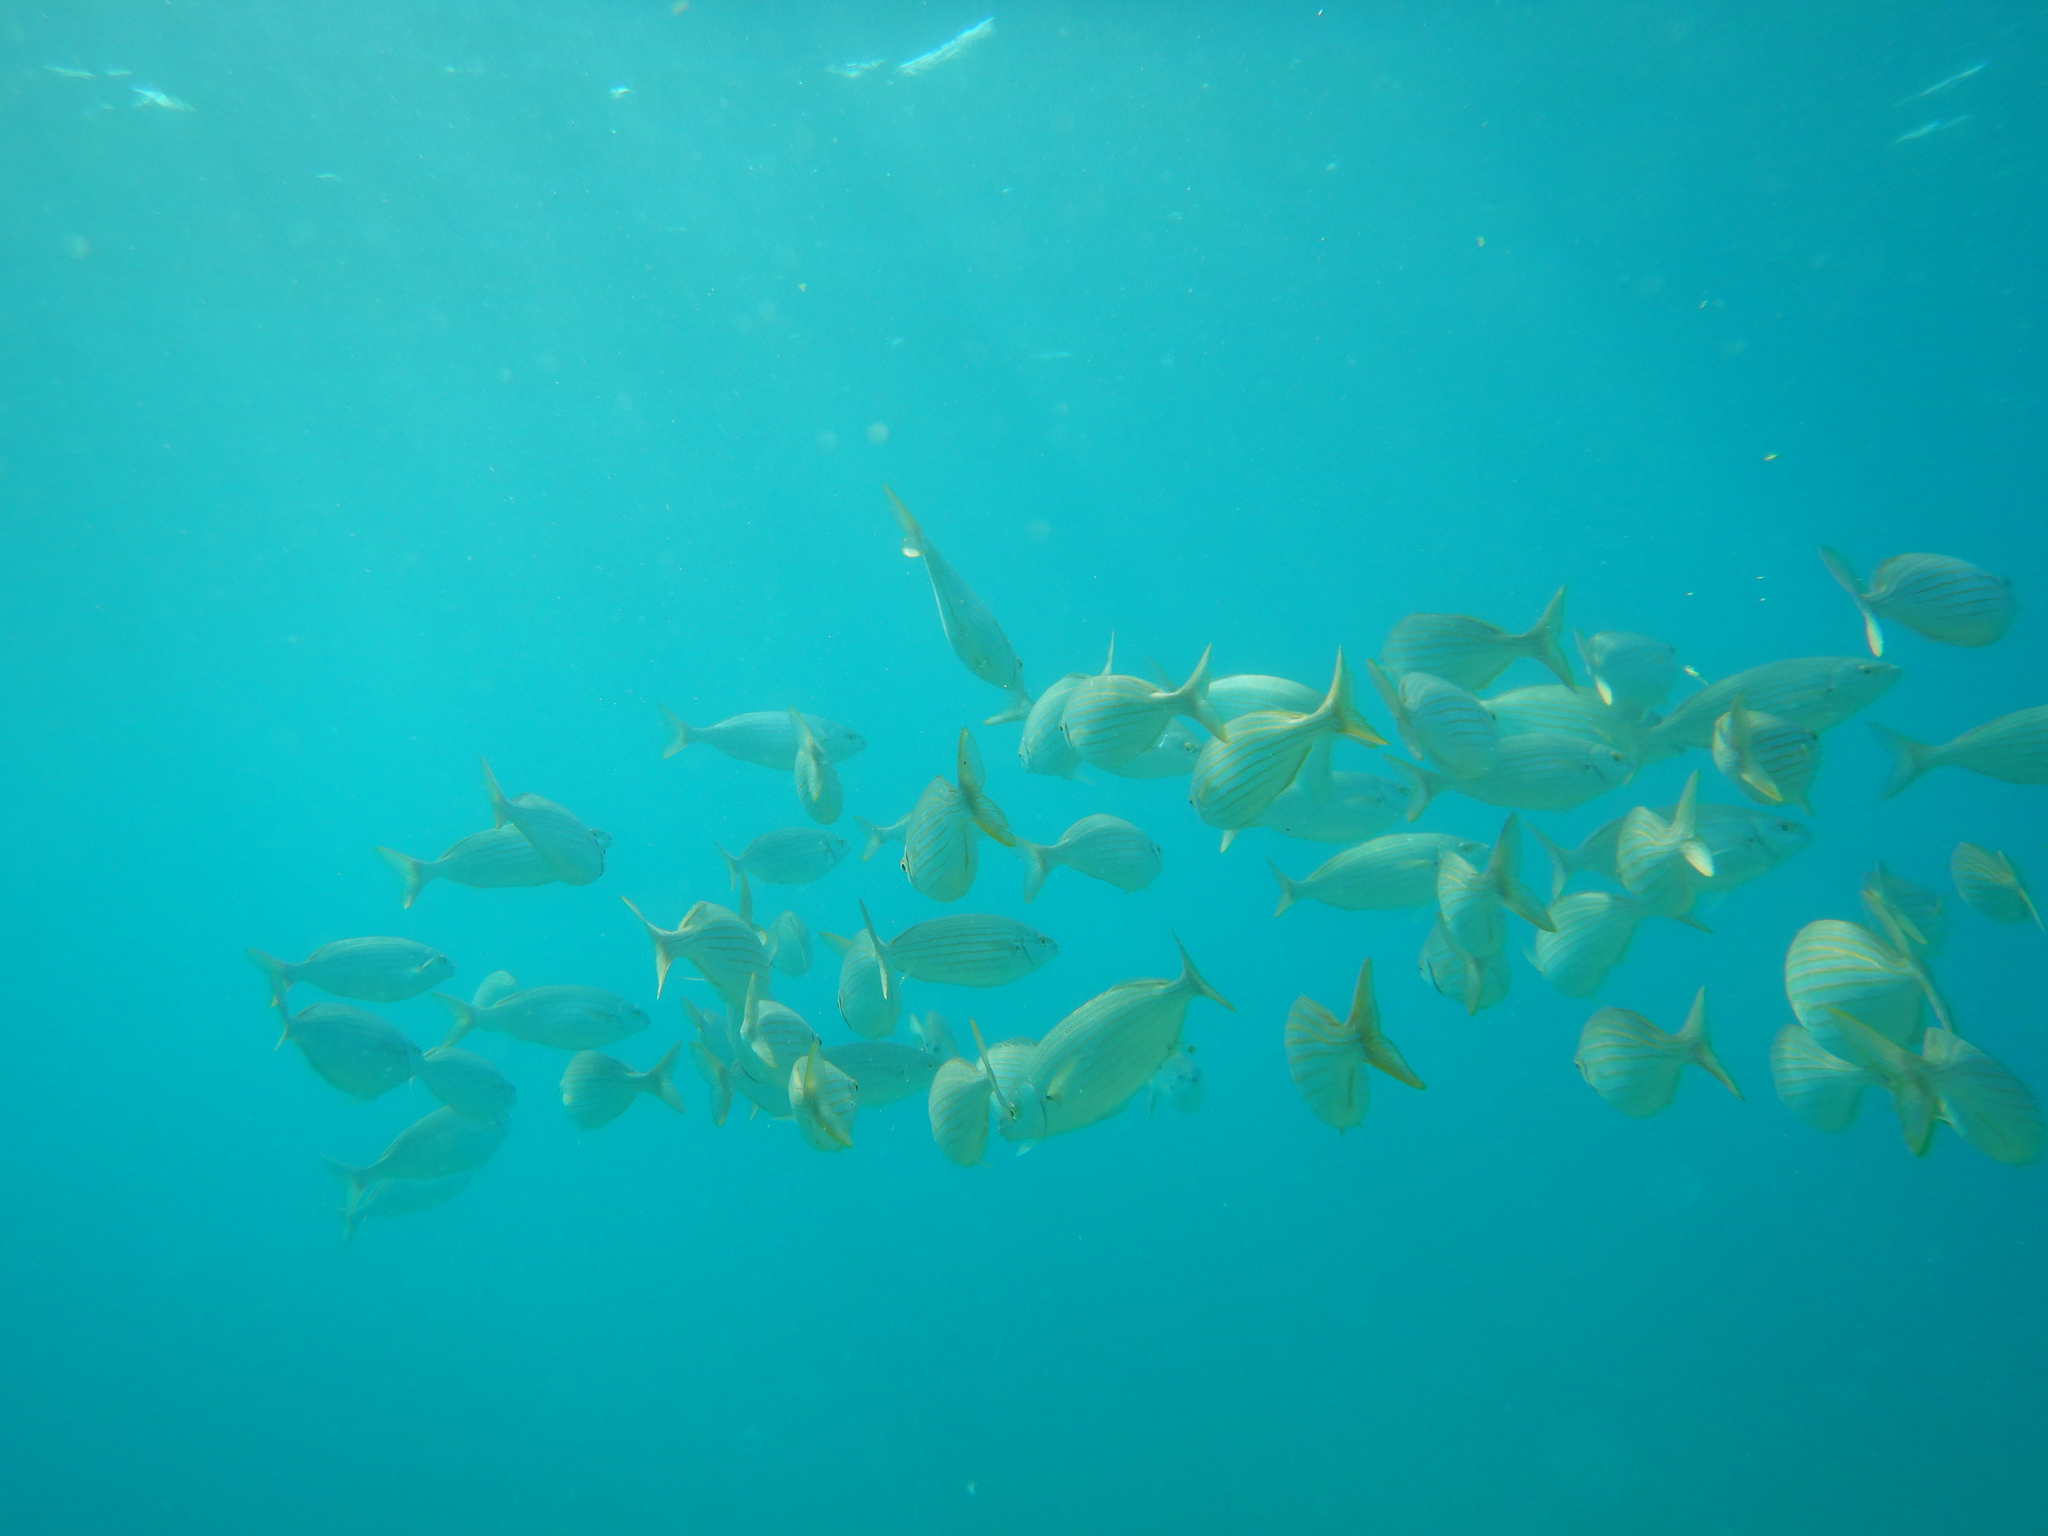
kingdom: Animalia
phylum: Chordata
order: Perciformes
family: Sparidae
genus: Sarpa
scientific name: Sarpa salpa
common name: Salema
